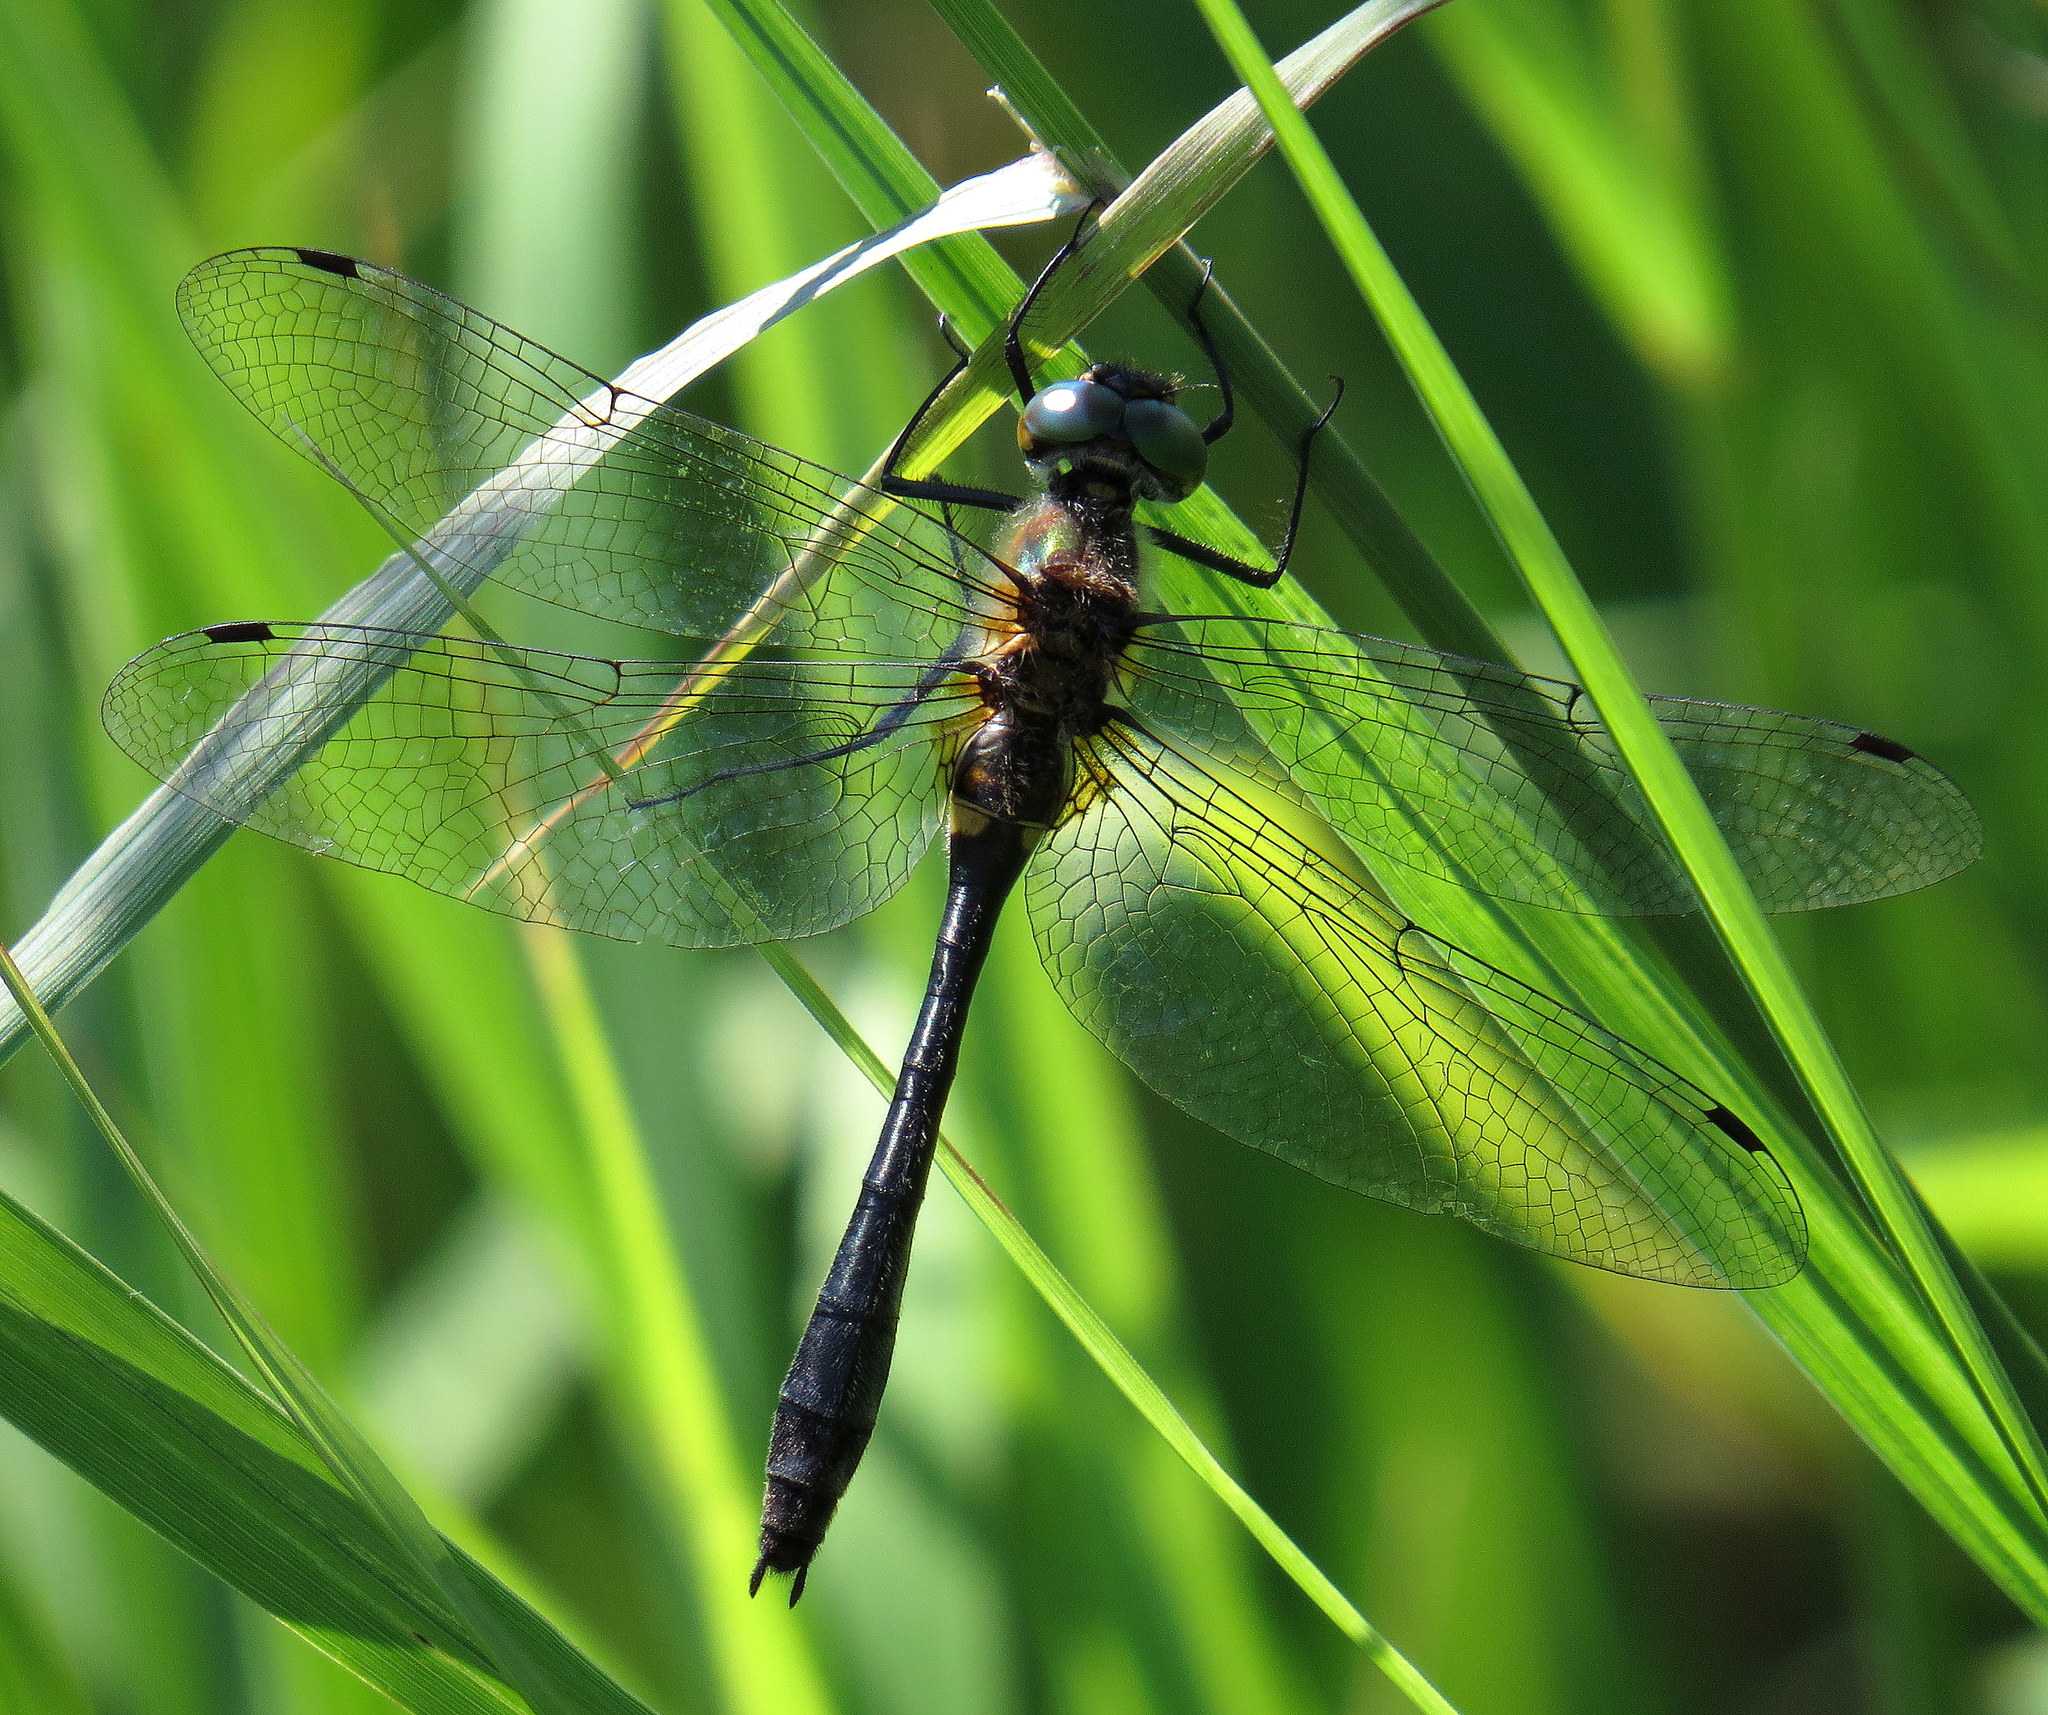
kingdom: Animalia
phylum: Arthropoda
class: Insecta
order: Odonata
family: Corduliidae
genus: Dorocordulia
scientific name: Dorocordulia libera
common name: Racket-tailed emerald
